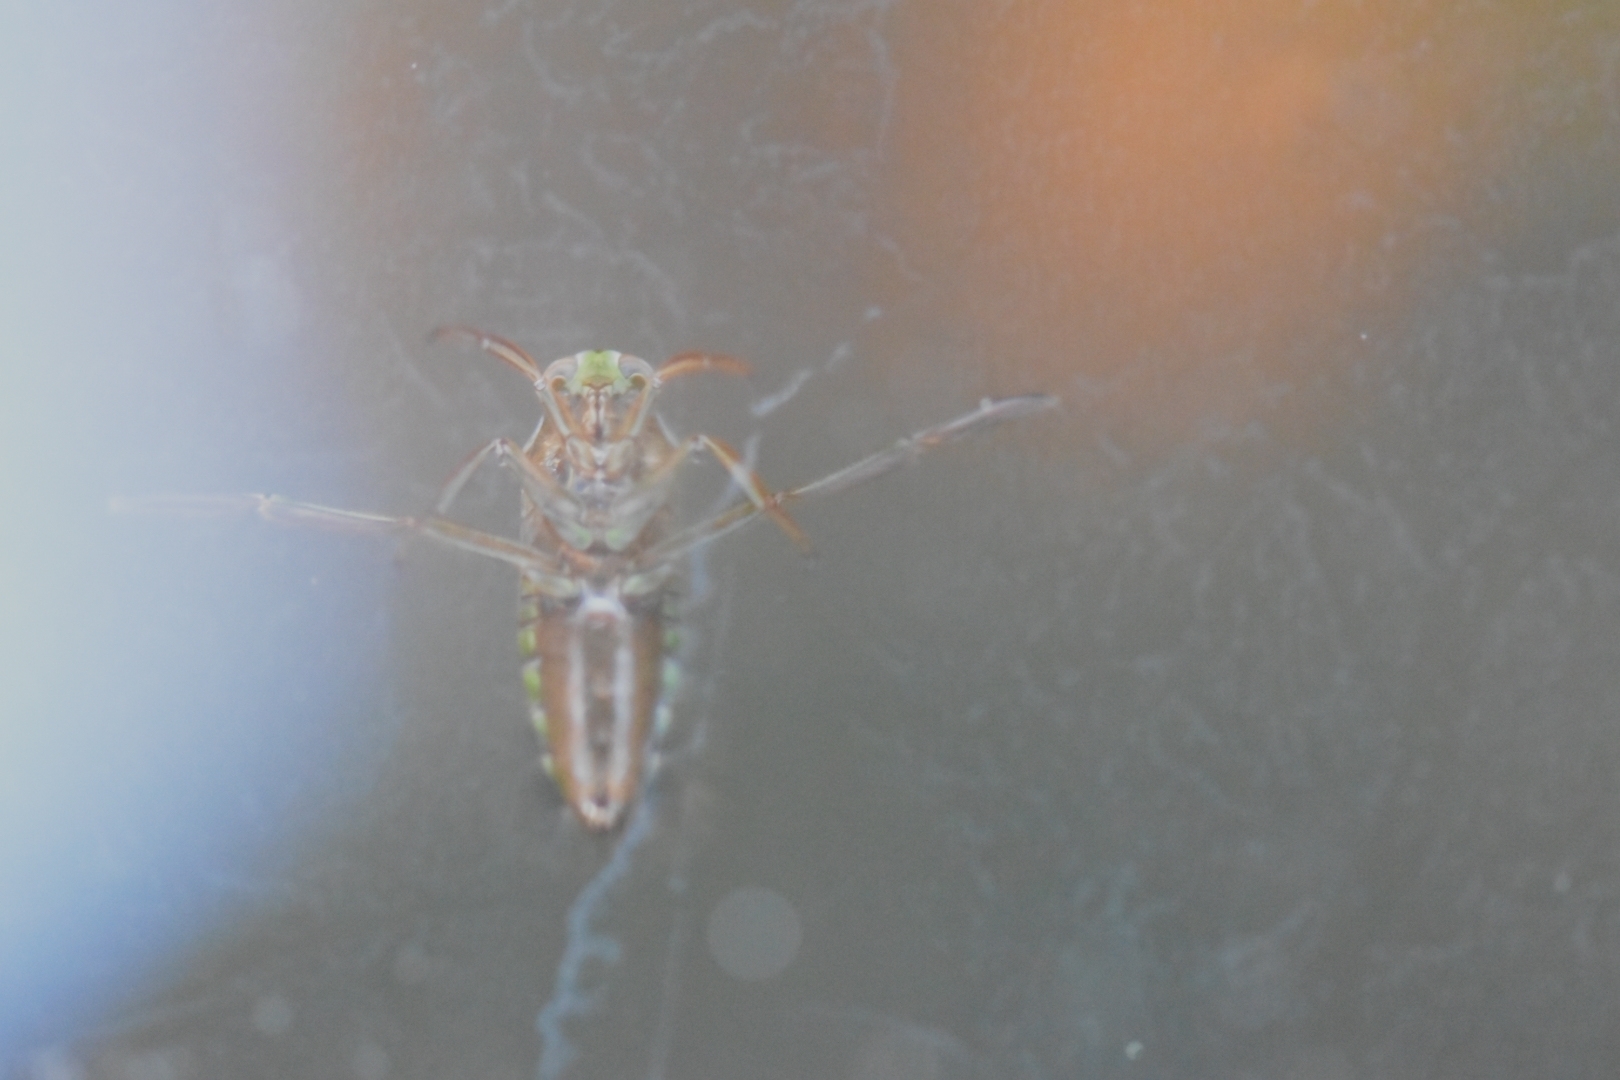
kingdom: Animalia
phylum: Arthropoda
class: Insecta
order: Hemiptera
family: Notonectidae
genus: Notonecta
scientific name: Notonecta
